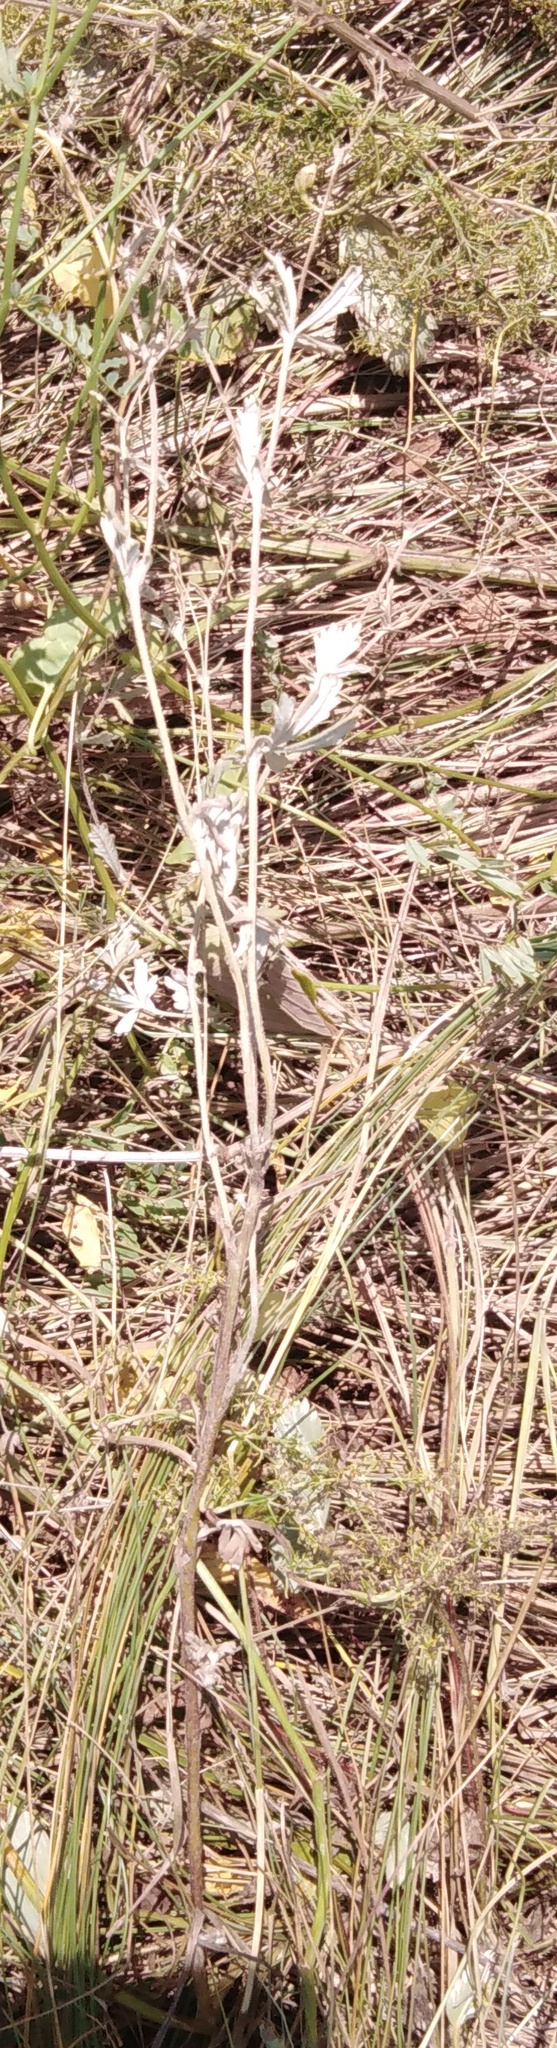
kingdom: Plantae
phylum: Tracheophyta
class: Magnoliopsida
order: Rosales
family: Rosaceae
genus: Potentilla
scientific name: Potentilla argentea
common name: Hoary cinquefoil
